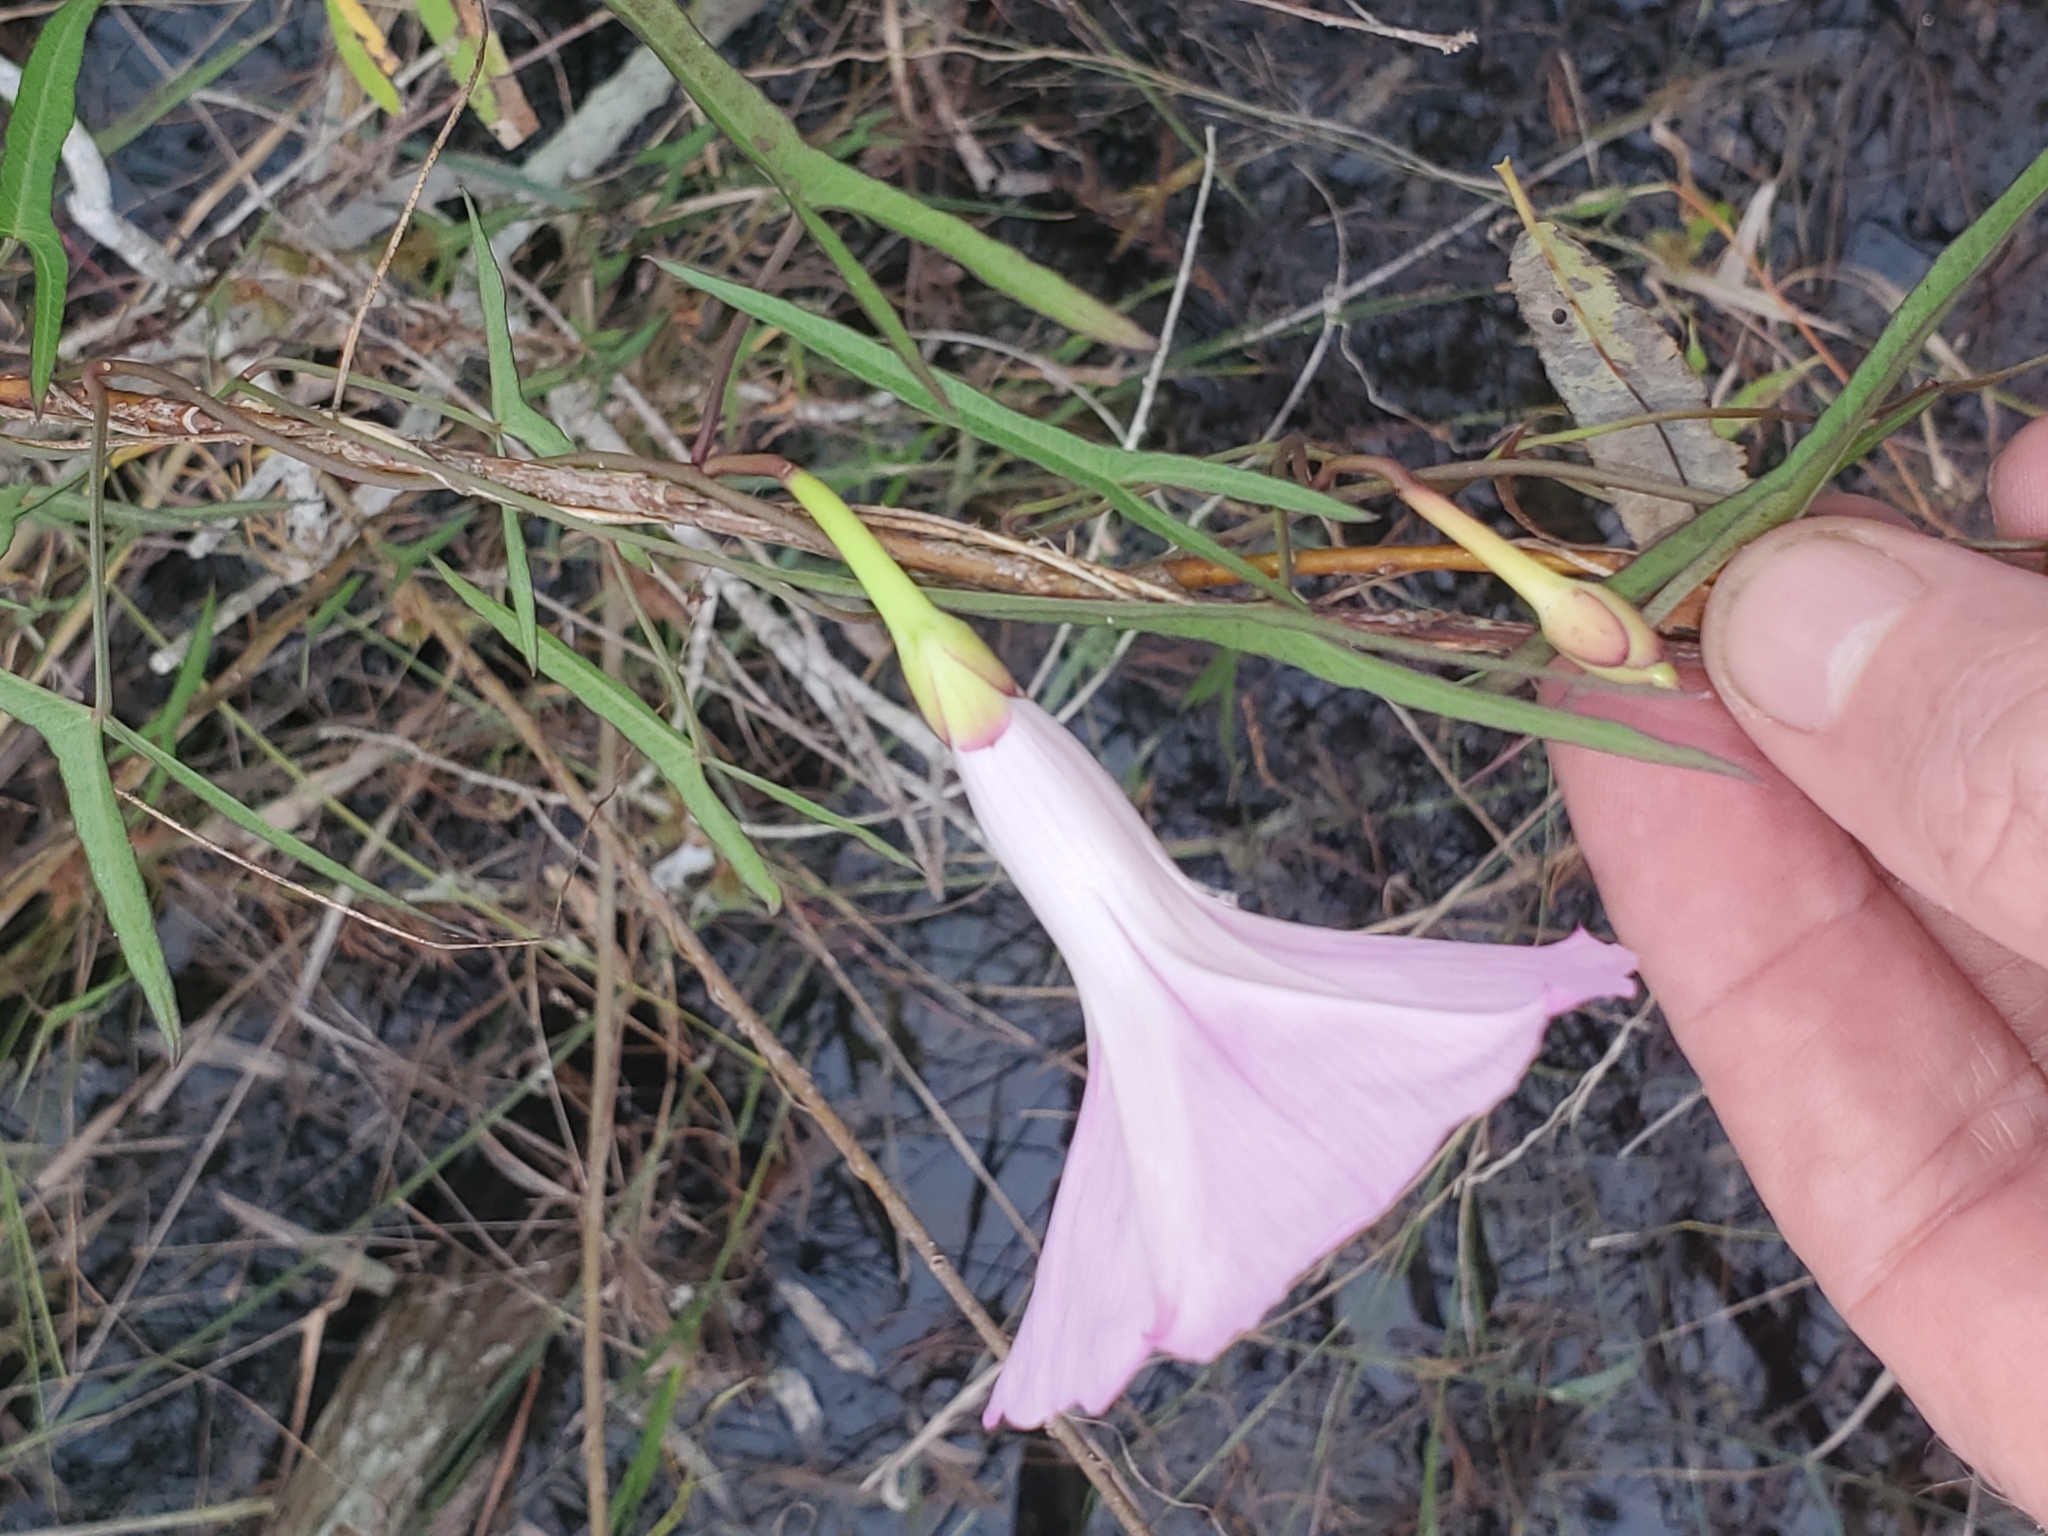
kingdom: Plantae
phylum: Tracheophyta
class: Magnoliopsida
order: Solanales
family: Convolvulaceae
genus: Ipomoea
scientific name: Ipomoea sagittata
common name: Saltmarsh morning glory
